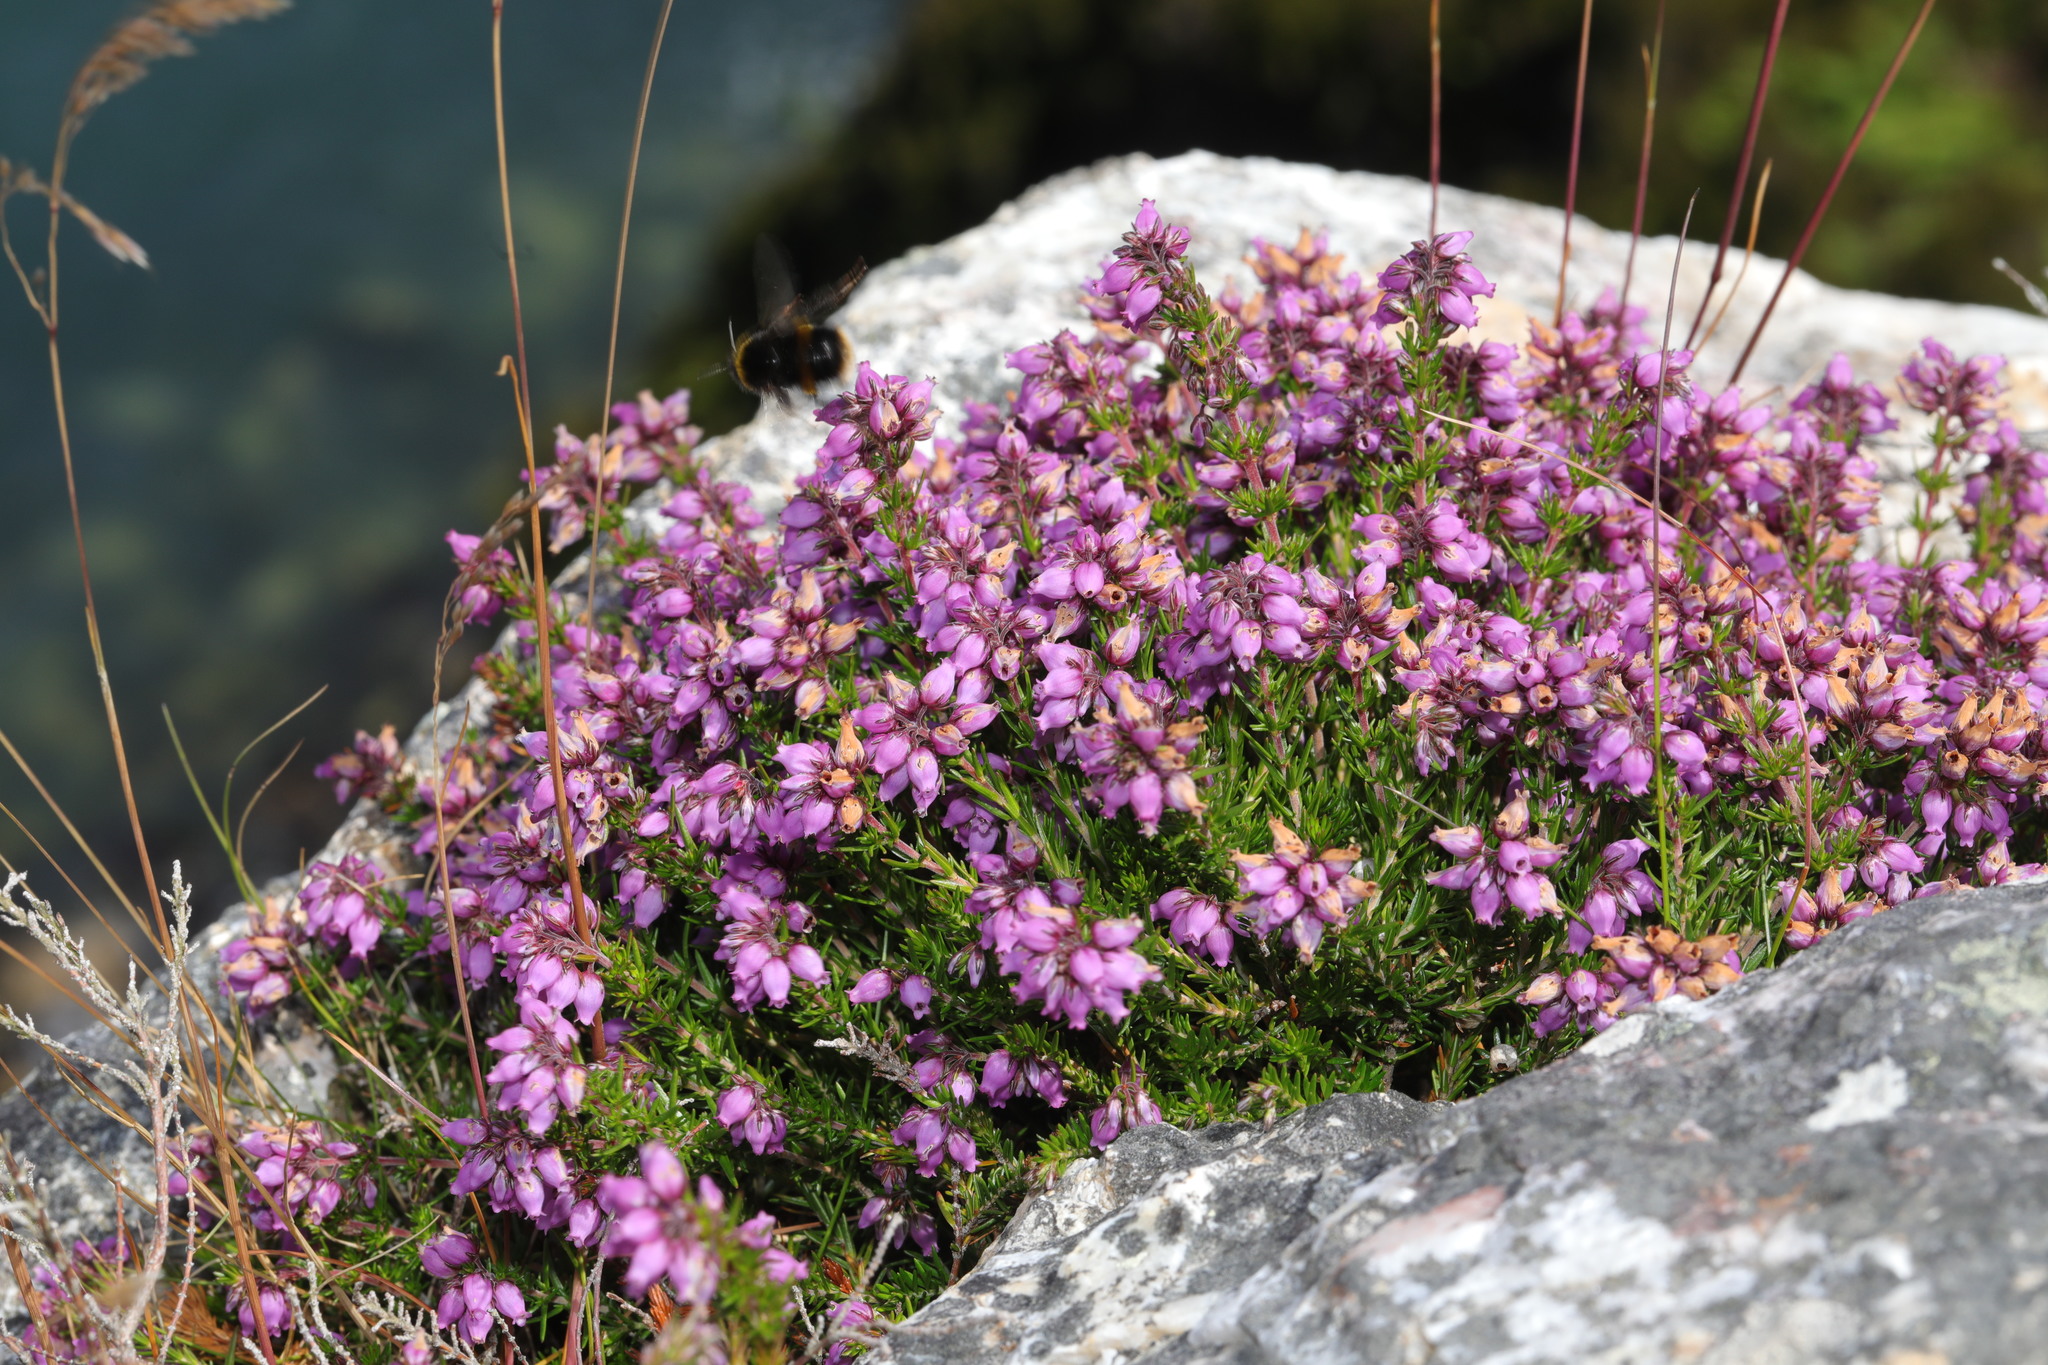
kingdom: Plantae
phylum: Tracheophyta
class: Magnoliopsida
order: Ericales
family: Ericaceae
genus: Erica
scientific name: Erica cinerea
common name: Bell heather
